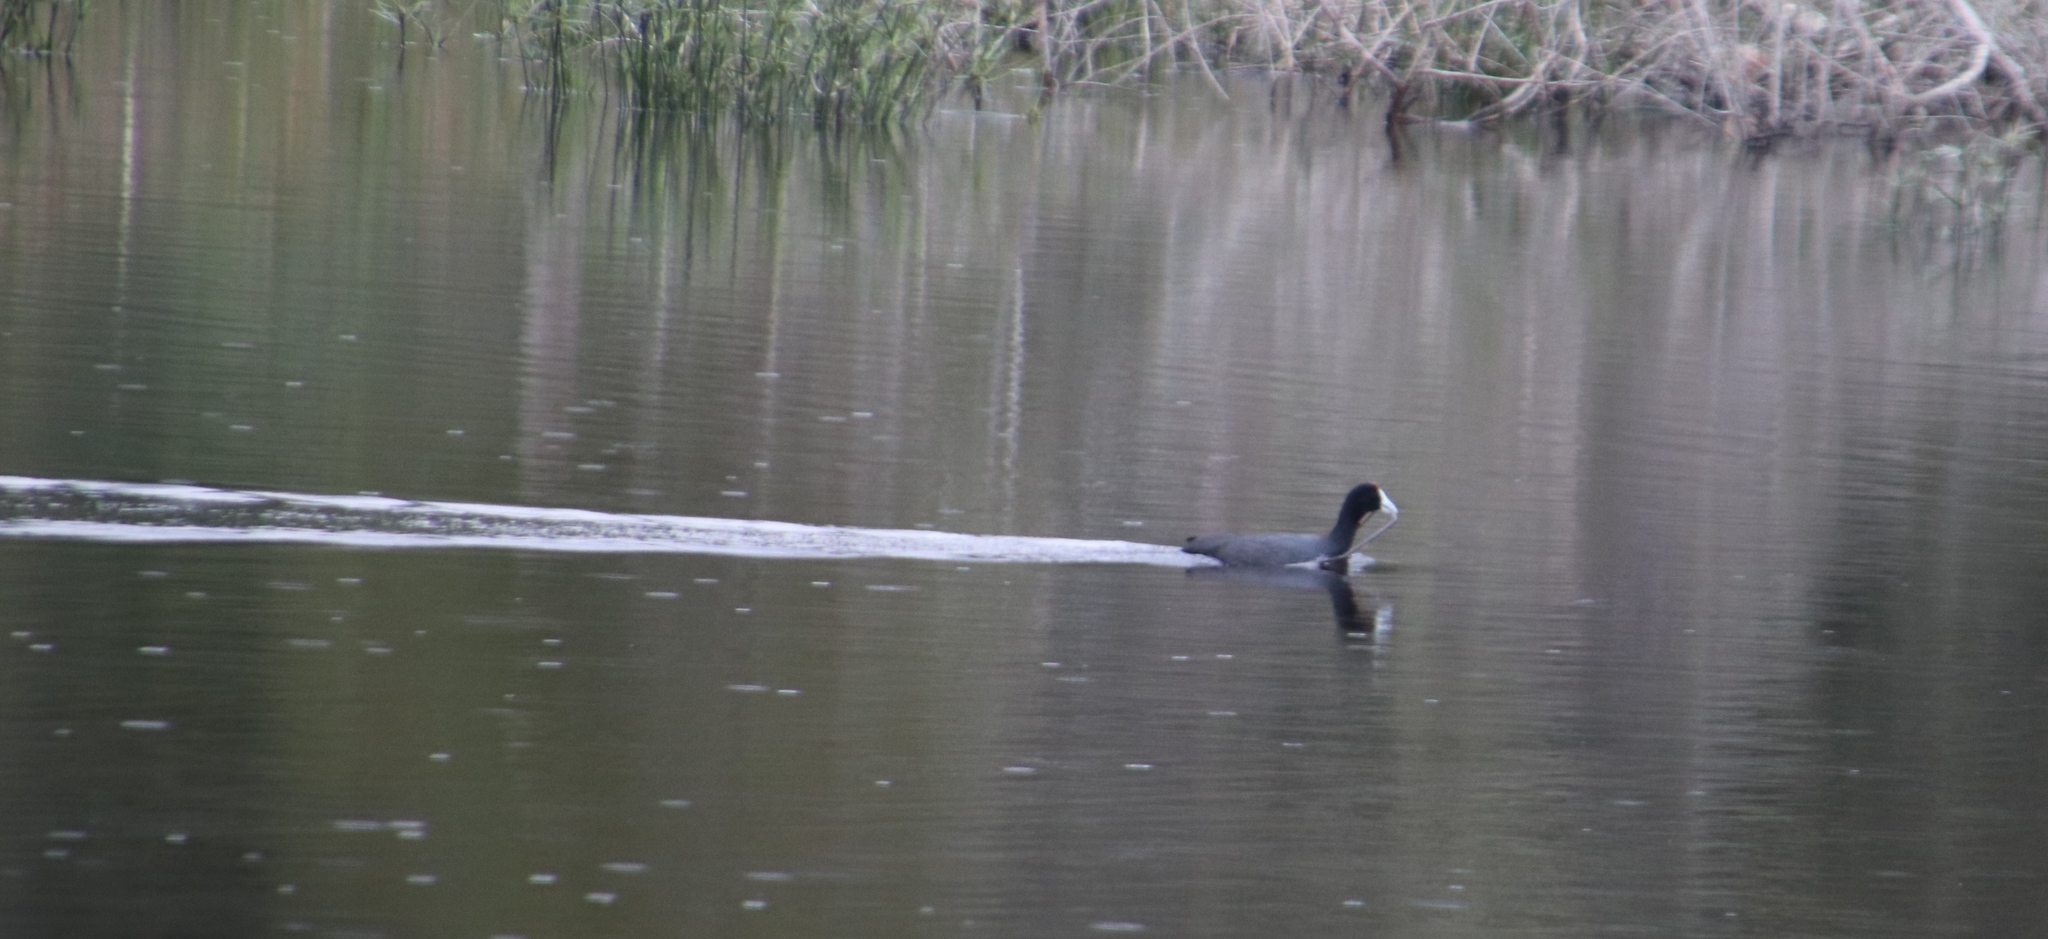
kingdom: Animalia
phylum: Chordata
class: Aves
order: Gruiformes
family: Rallidae
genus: Fulica
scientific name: Fulica cristata
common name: Red-knobbed coot
